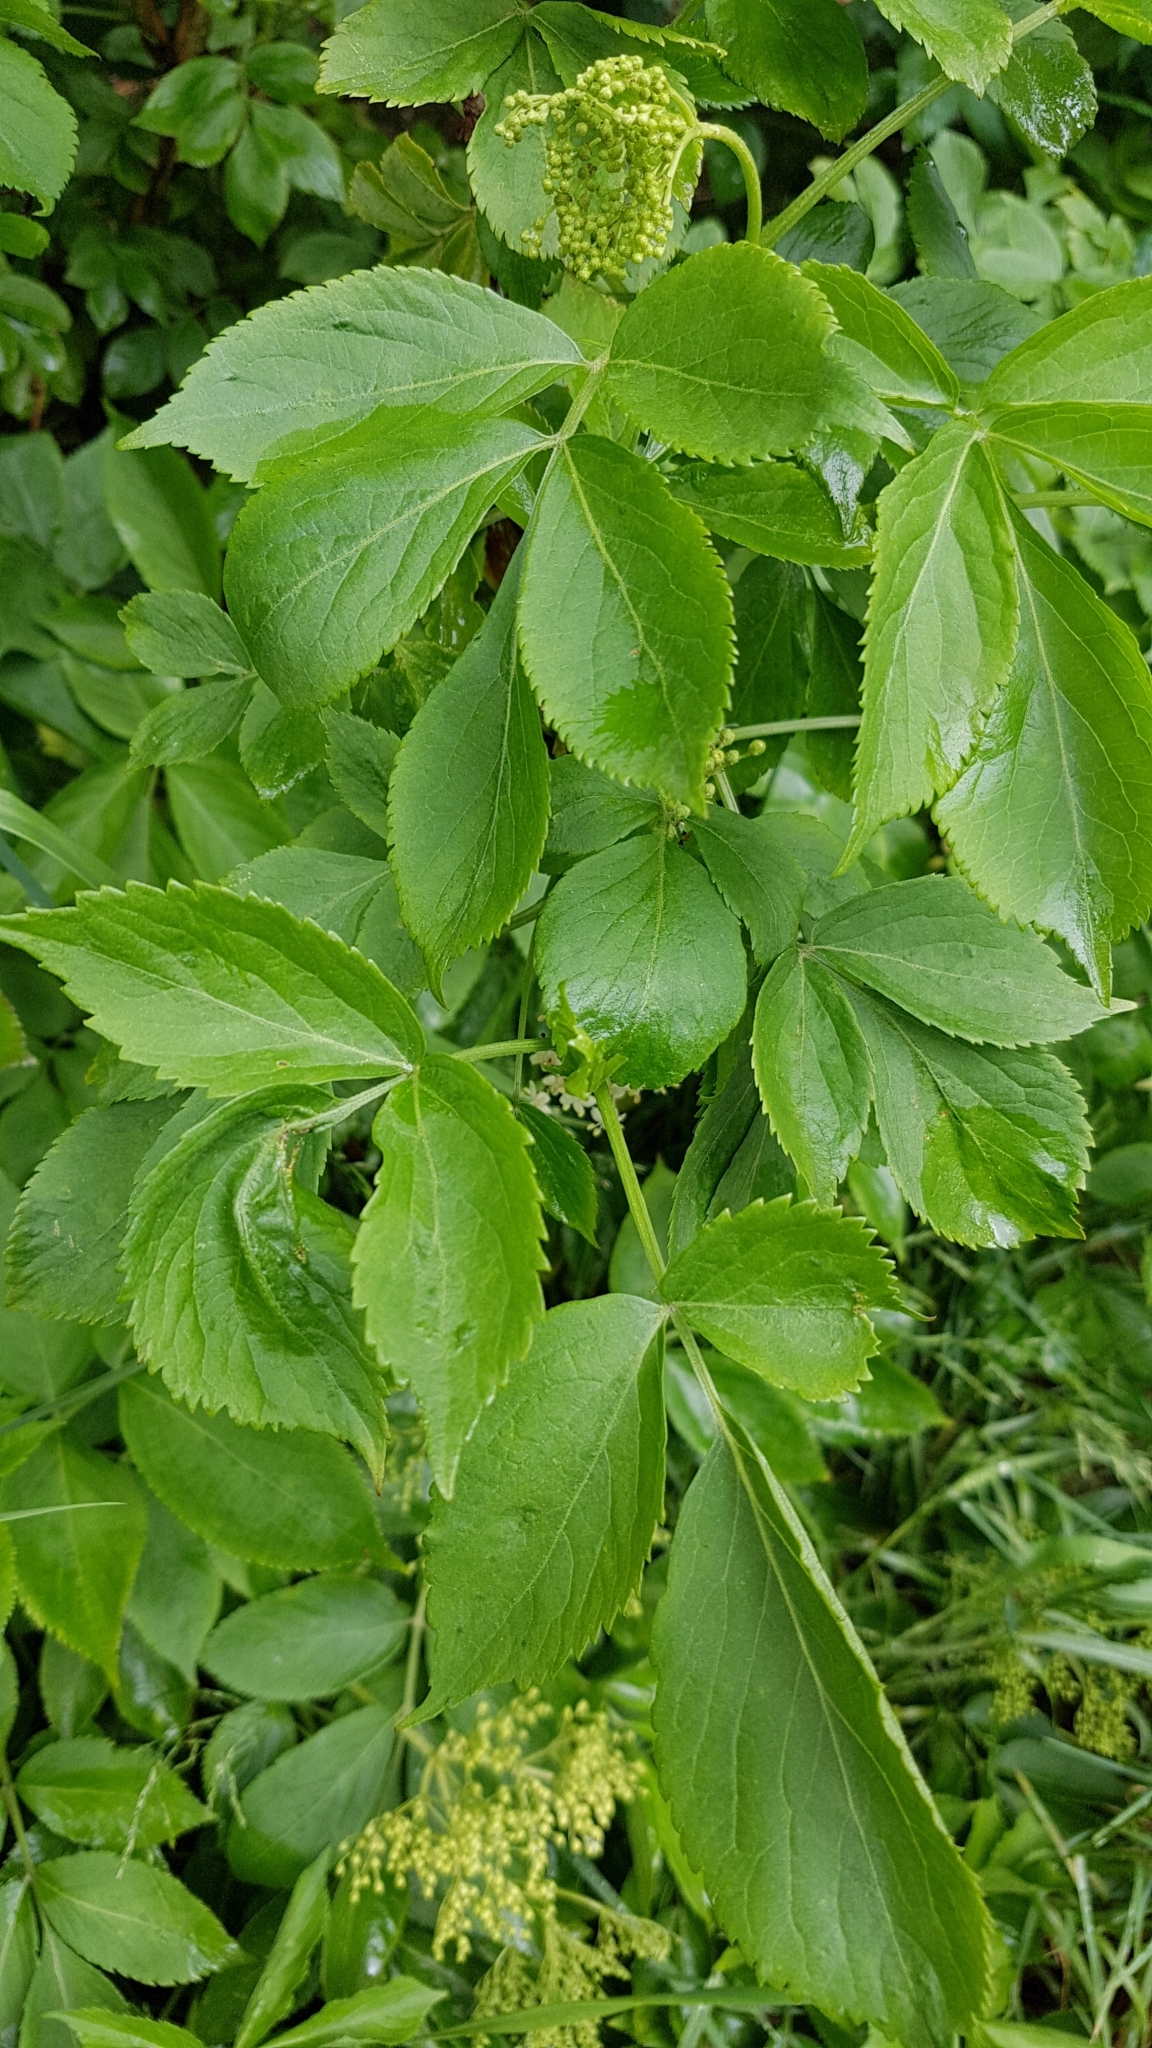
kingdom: Plantae
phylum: Tracheophyta
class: Magnoliopsida
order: Dipsacales
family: Viburnaceae
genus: Sambucus
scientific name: Sambucus nigra
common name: Elder
